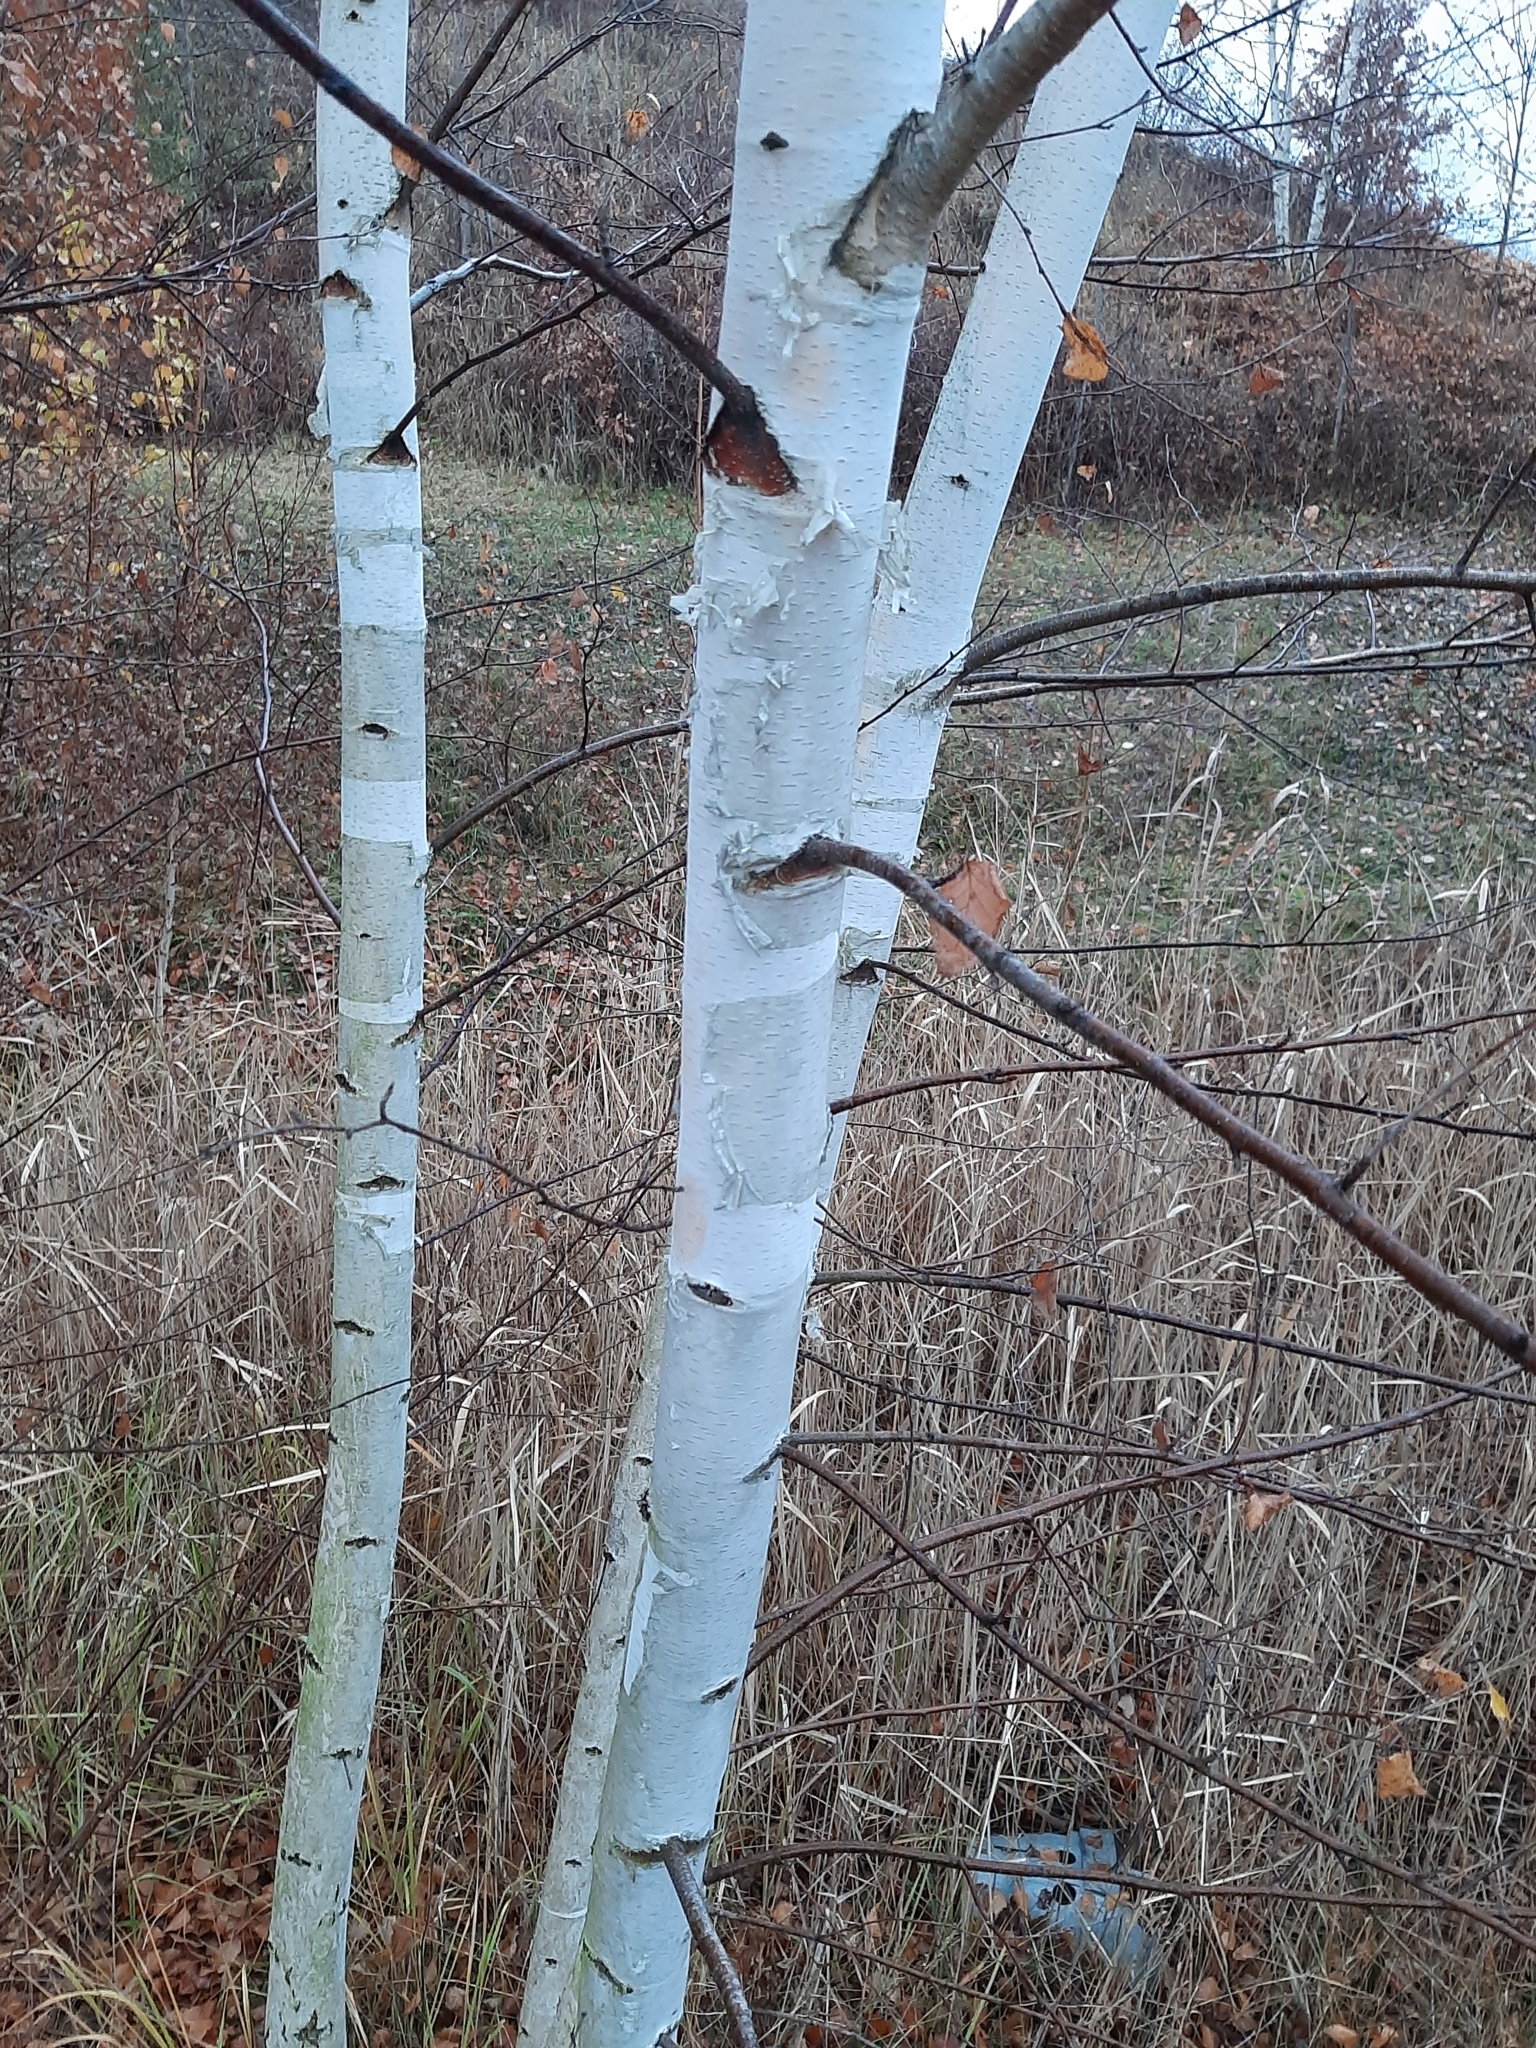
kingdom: Plantae
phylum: Tracheophyta
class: Magnoliopsida
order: Fagales
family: Betulaceae
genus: Betula
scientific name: Betula pendula
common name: Silver birch
